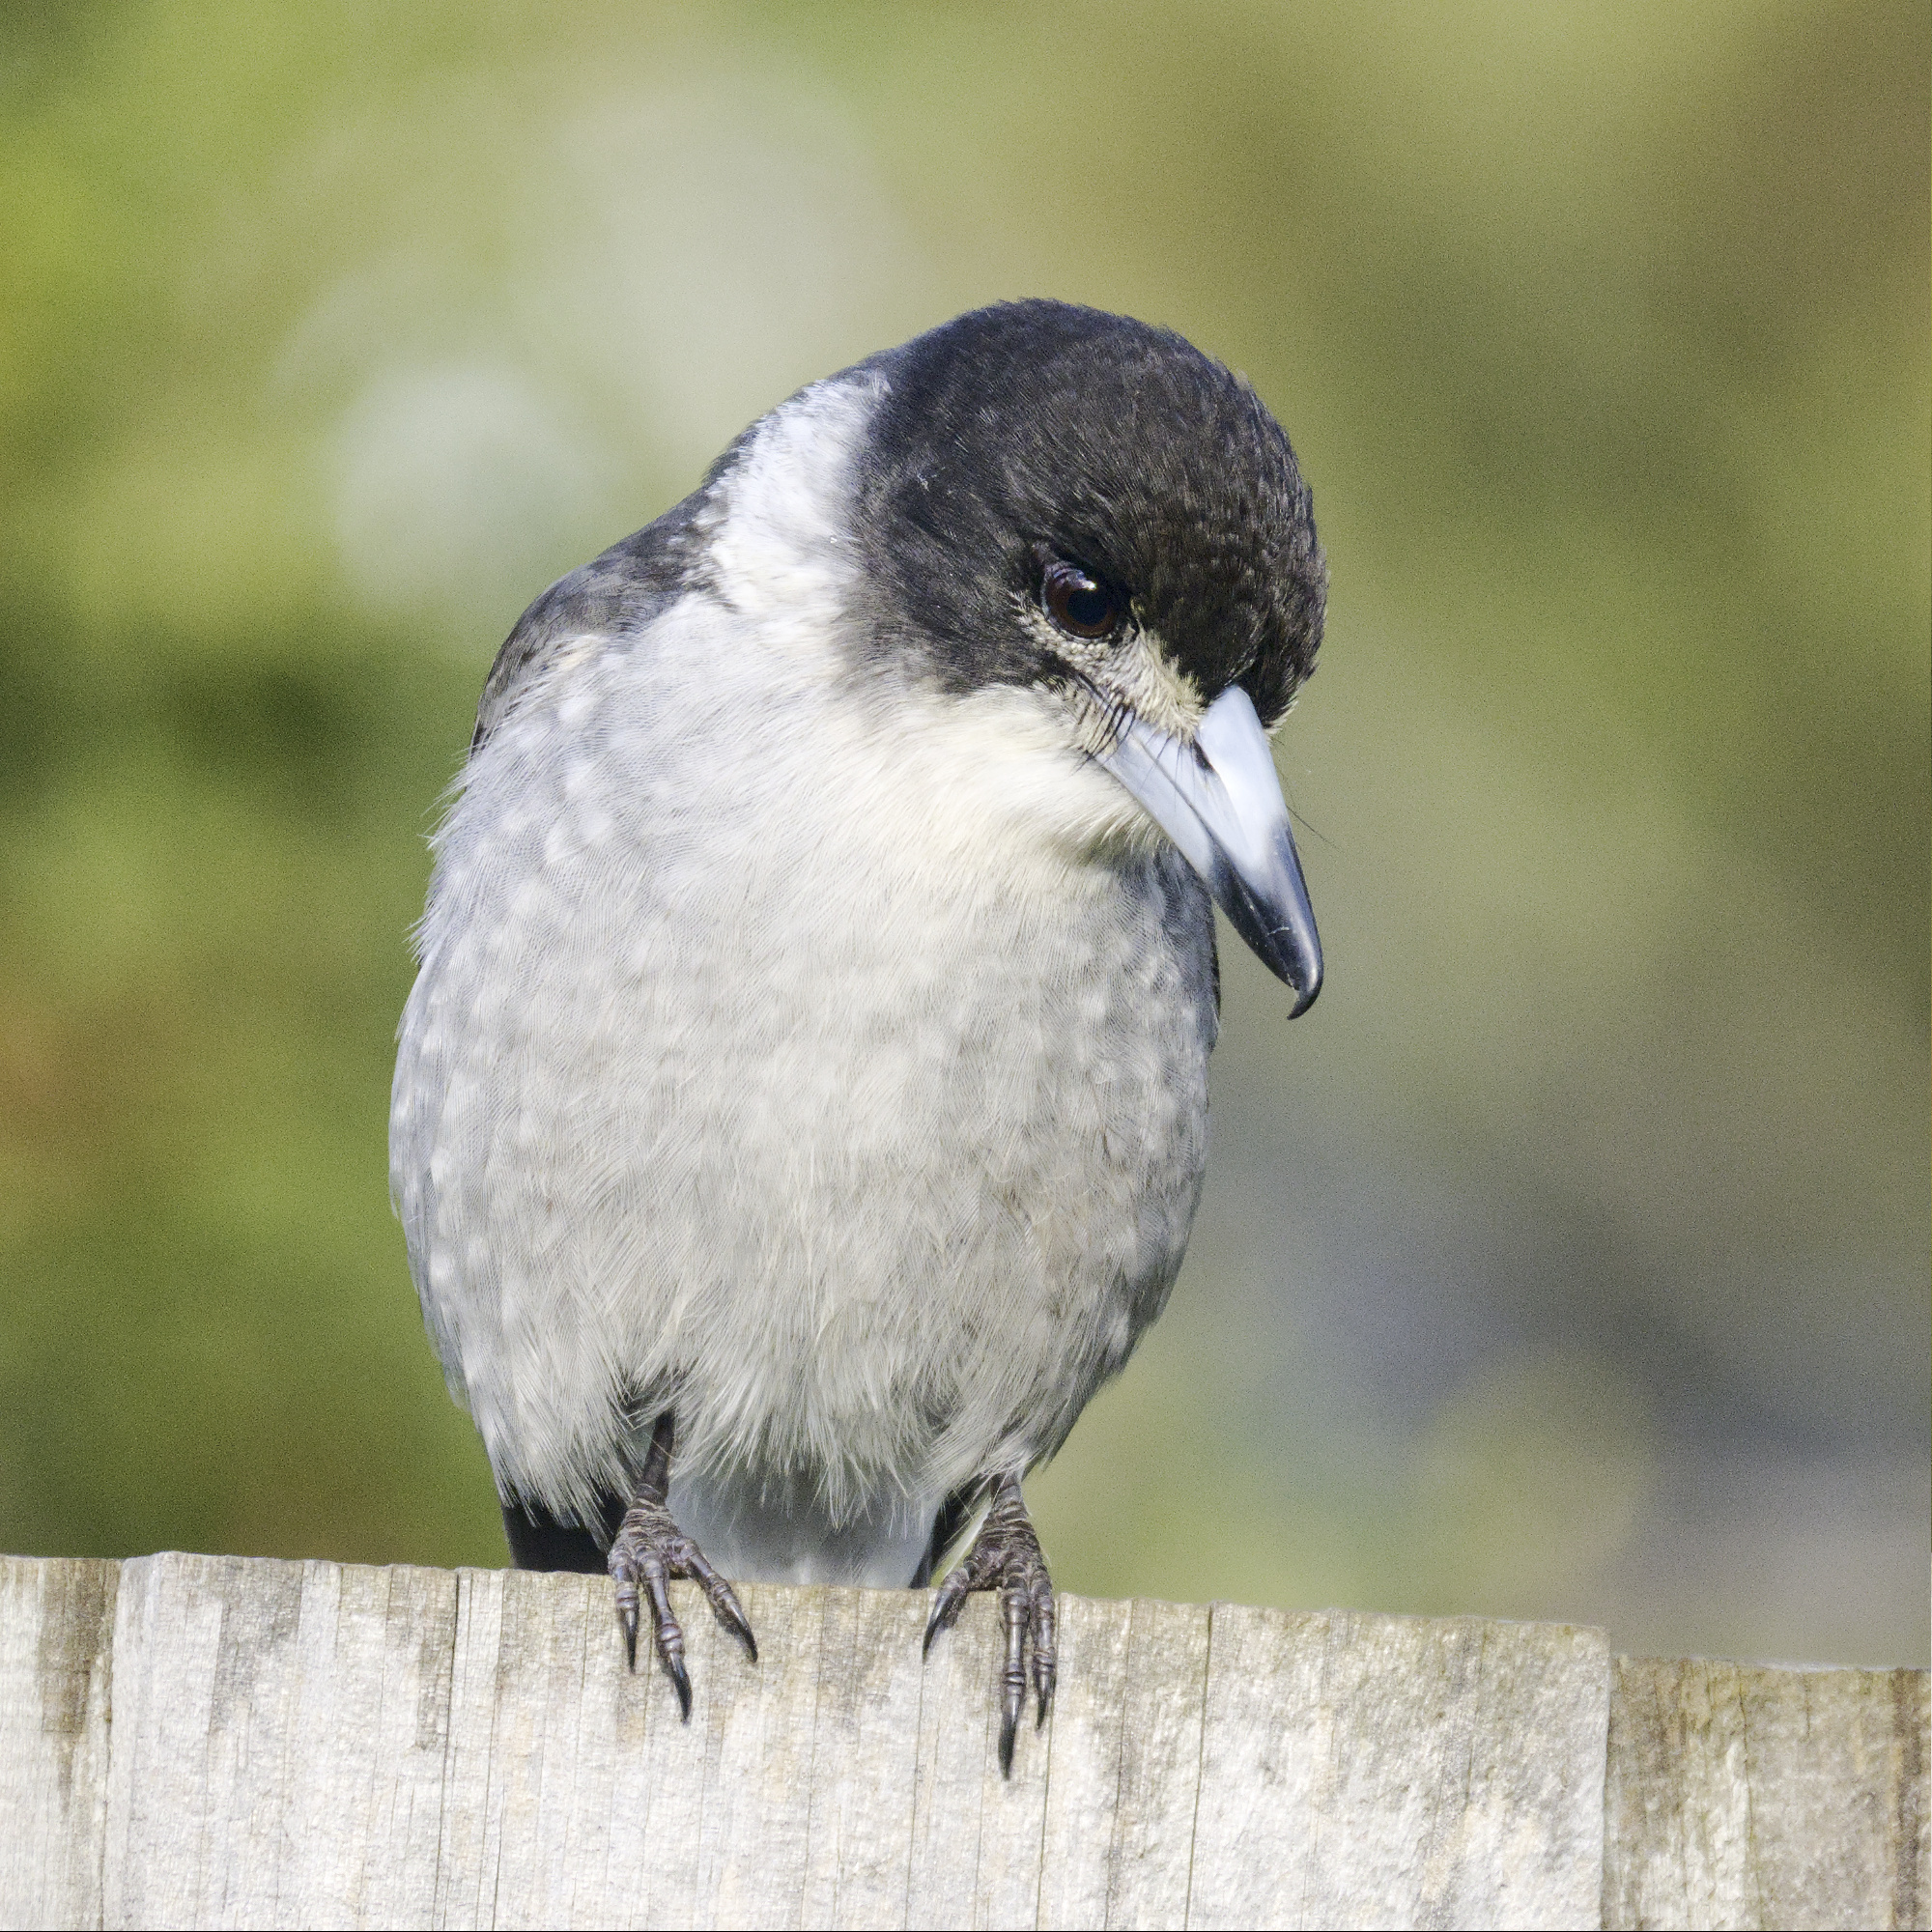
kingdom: Animalia
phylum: Chordata
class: Aves
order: Passeriformes
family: Cracticidae
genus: Cracticus
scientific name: Cracticus torquatus
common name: Grey butcherbird
